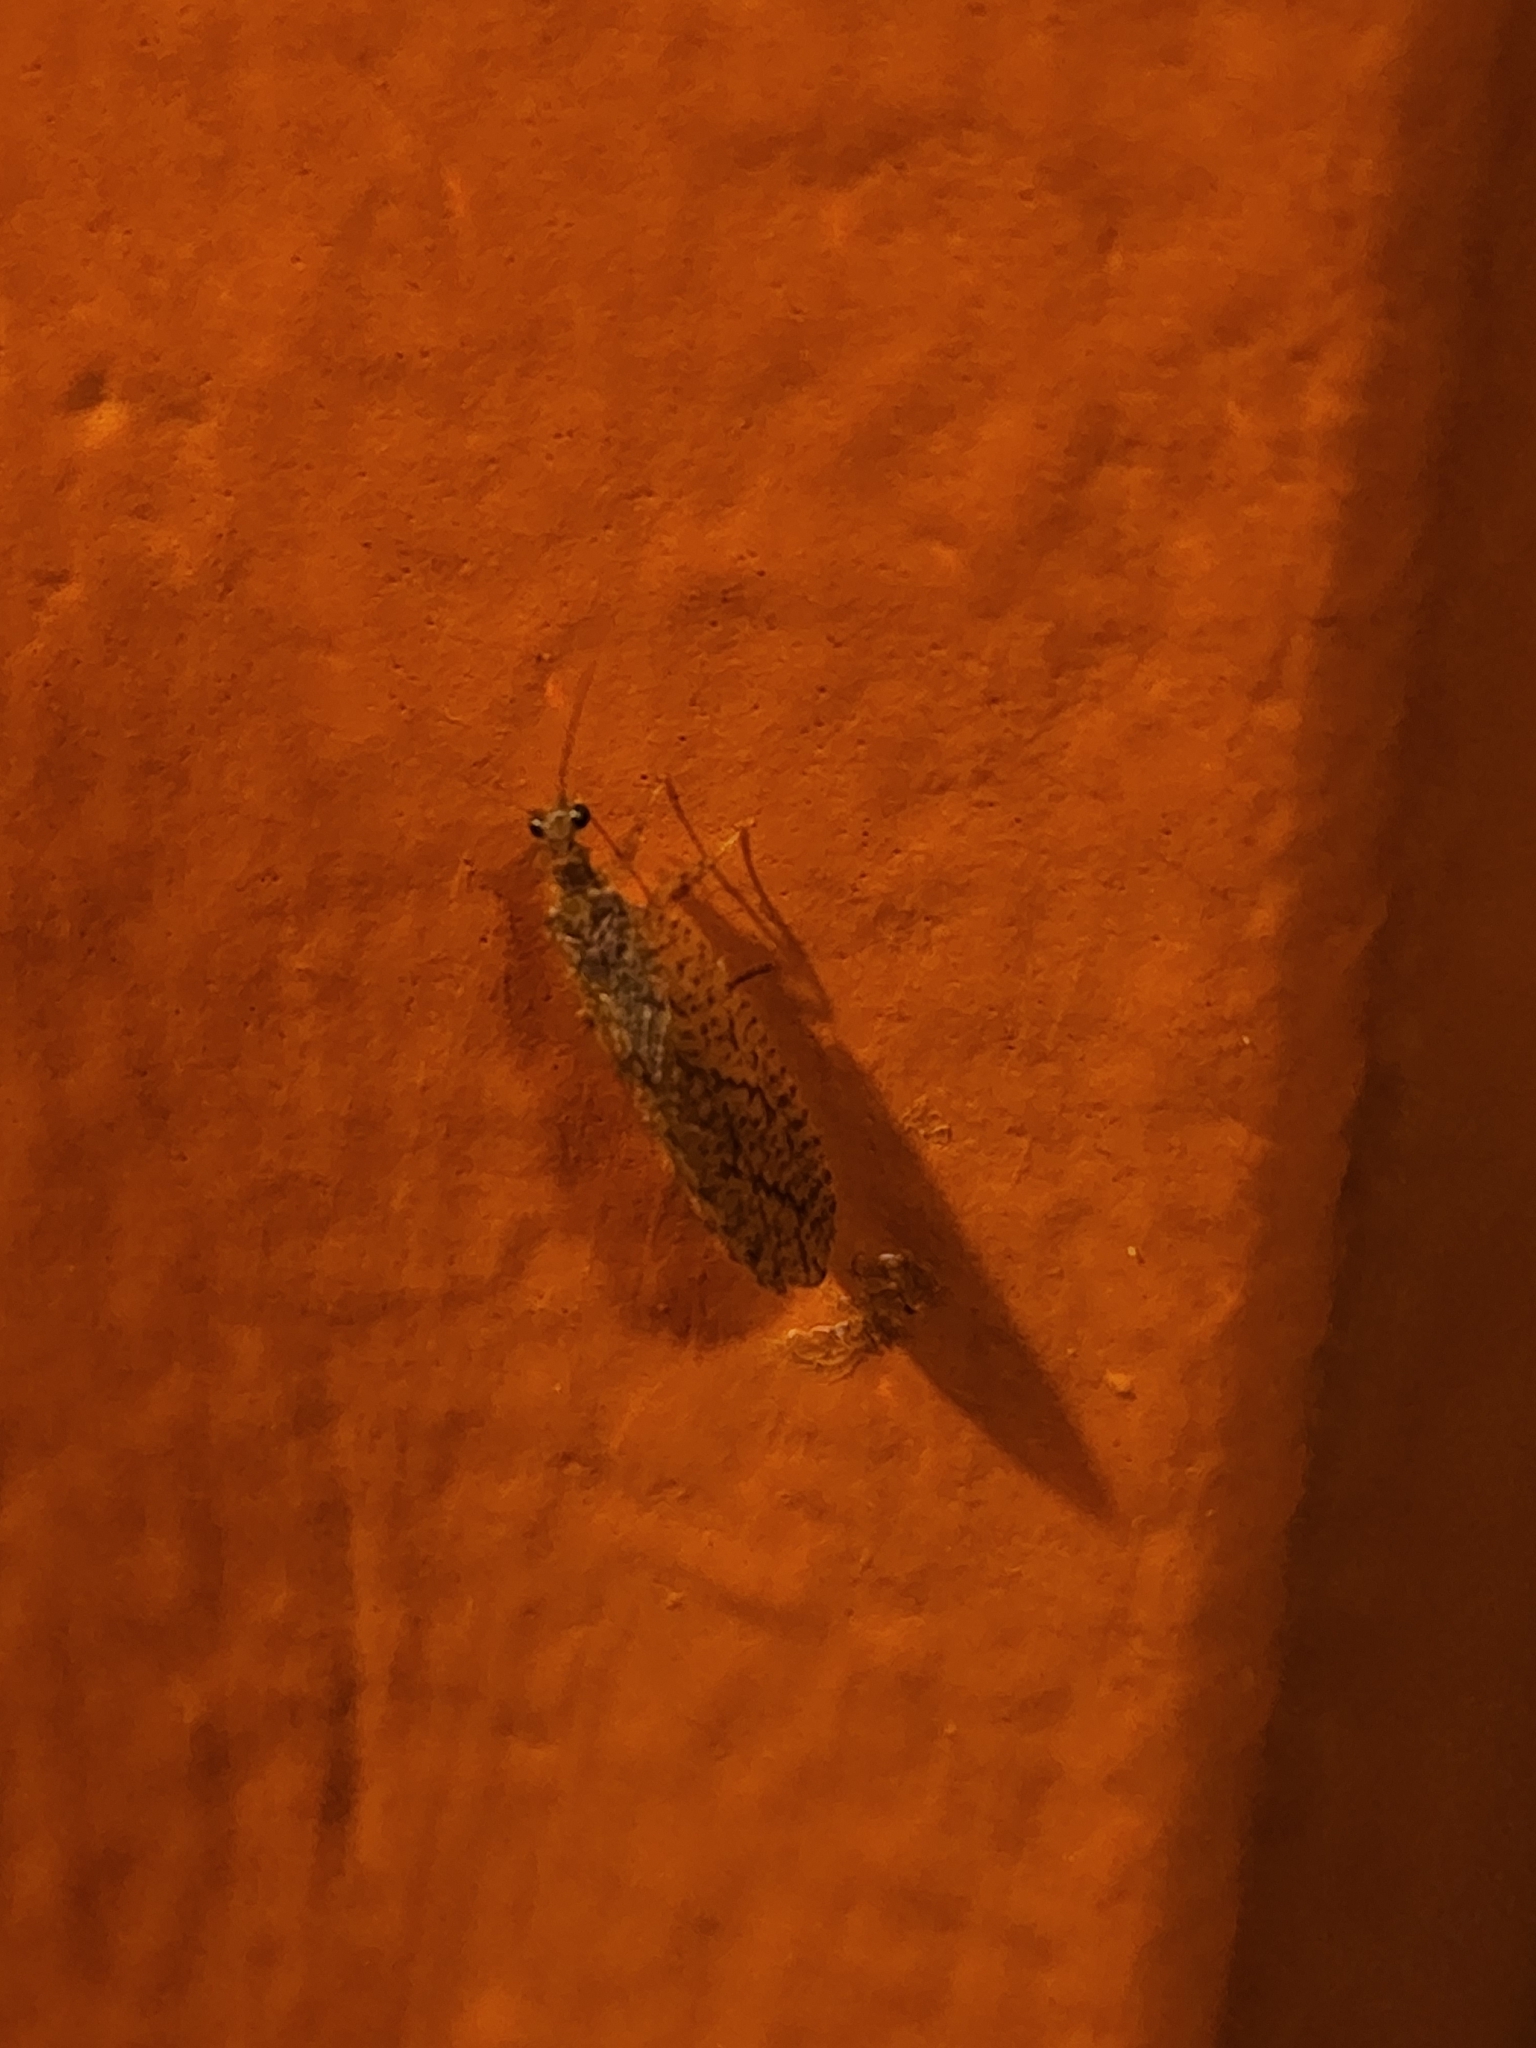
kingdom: Animalia
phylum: Arthropoda
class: Insecta
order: Neuroptera
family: Hemerobiidae
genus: Micromus
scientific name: Micromus posticus
